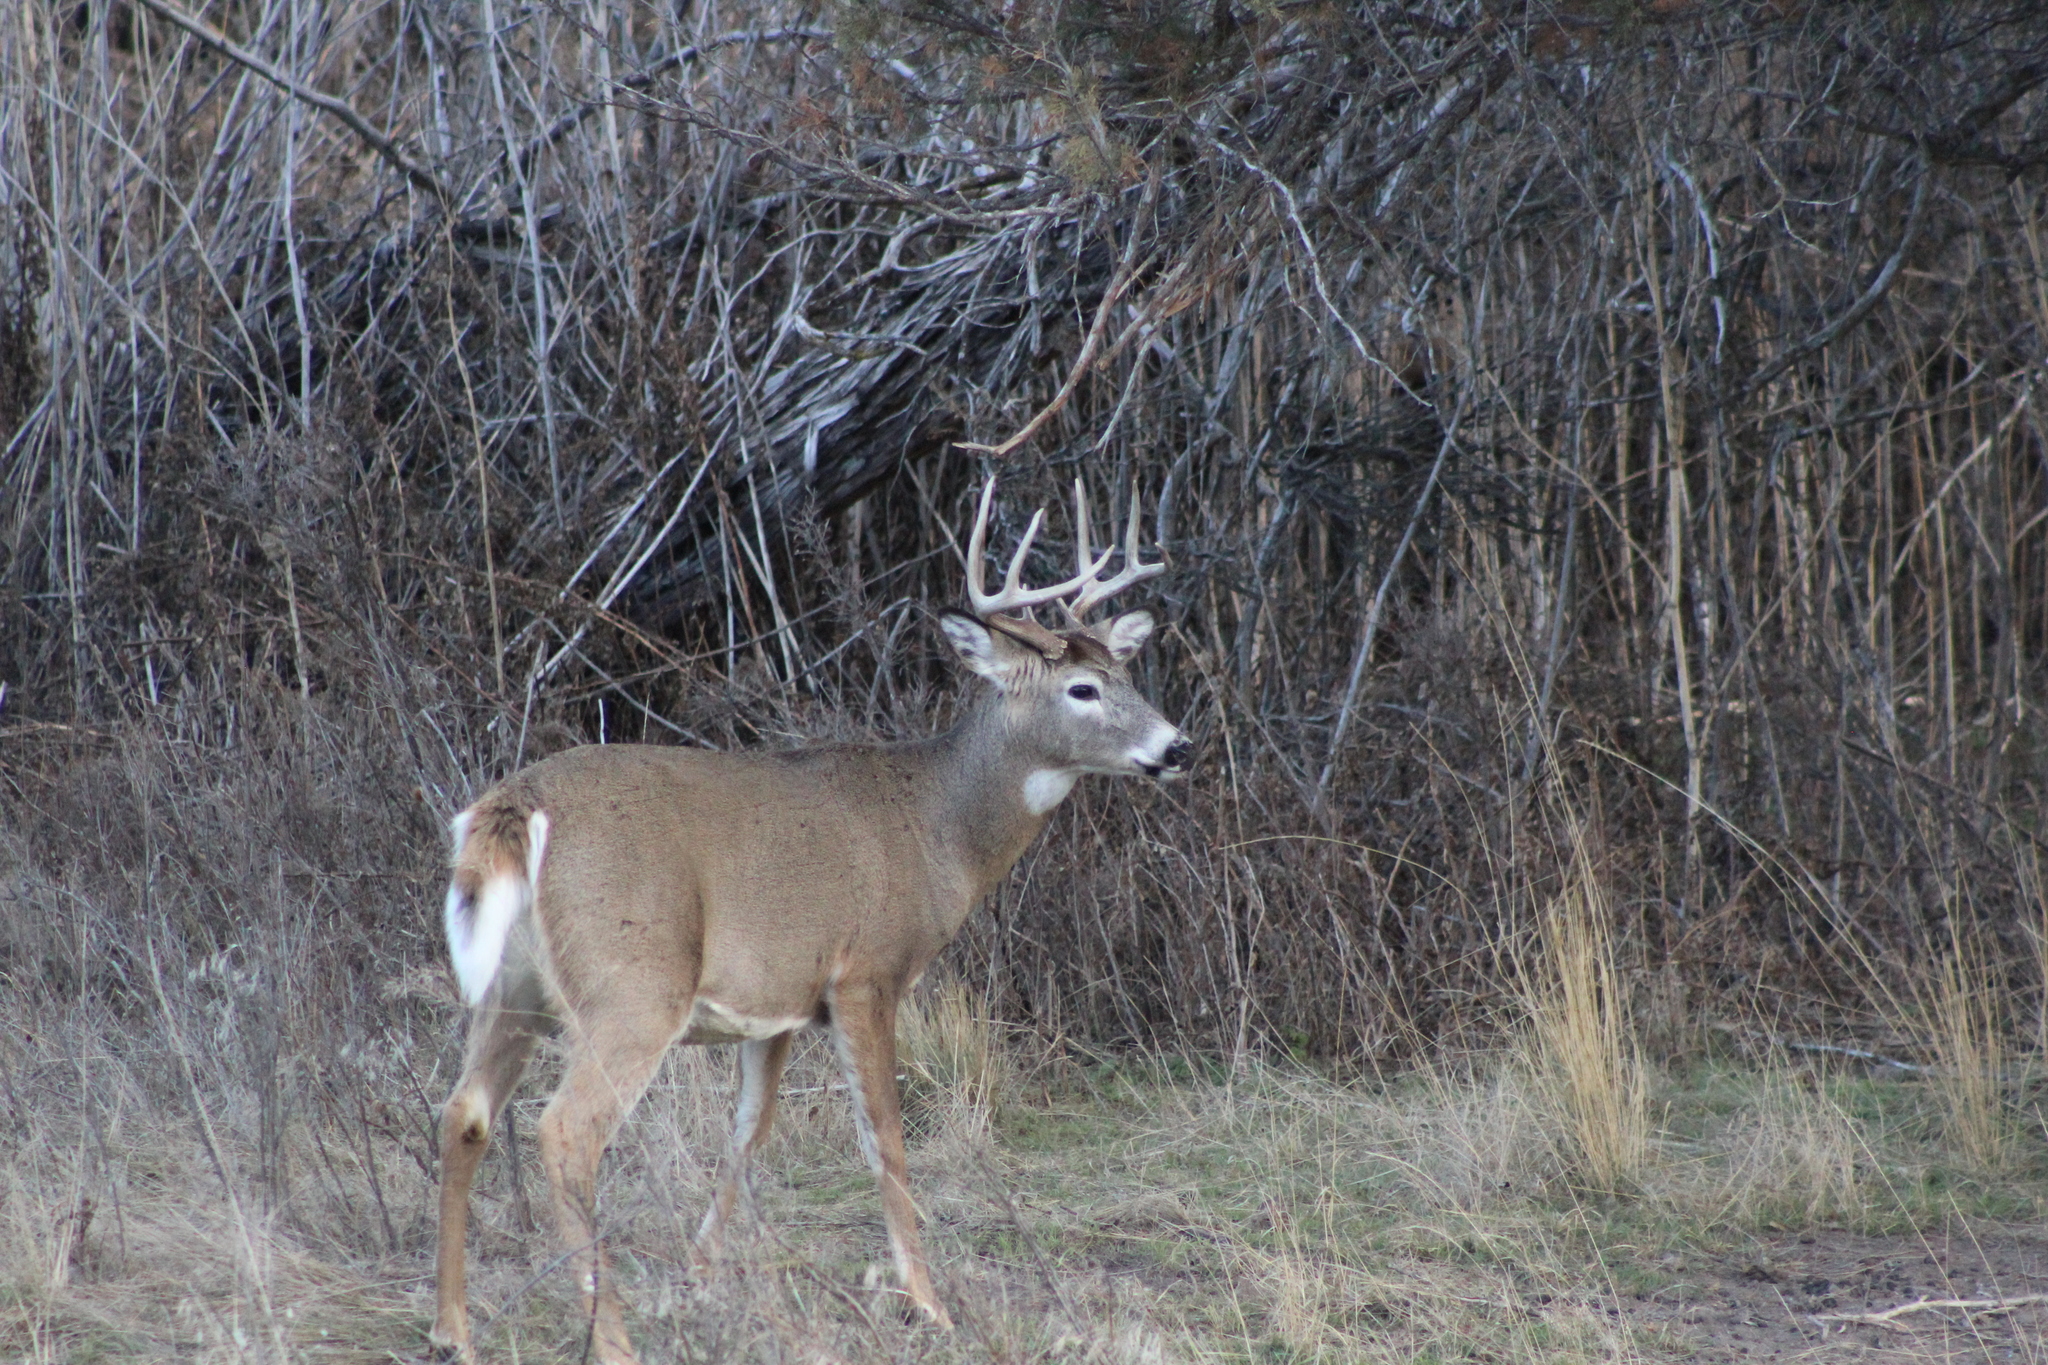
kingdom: Animalia
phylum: Chordata
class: Mammalia
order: Artiodactyla
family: Cervidae
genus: Odocoileus
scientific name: Odocoileus virginianus
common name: White-tailed deer
